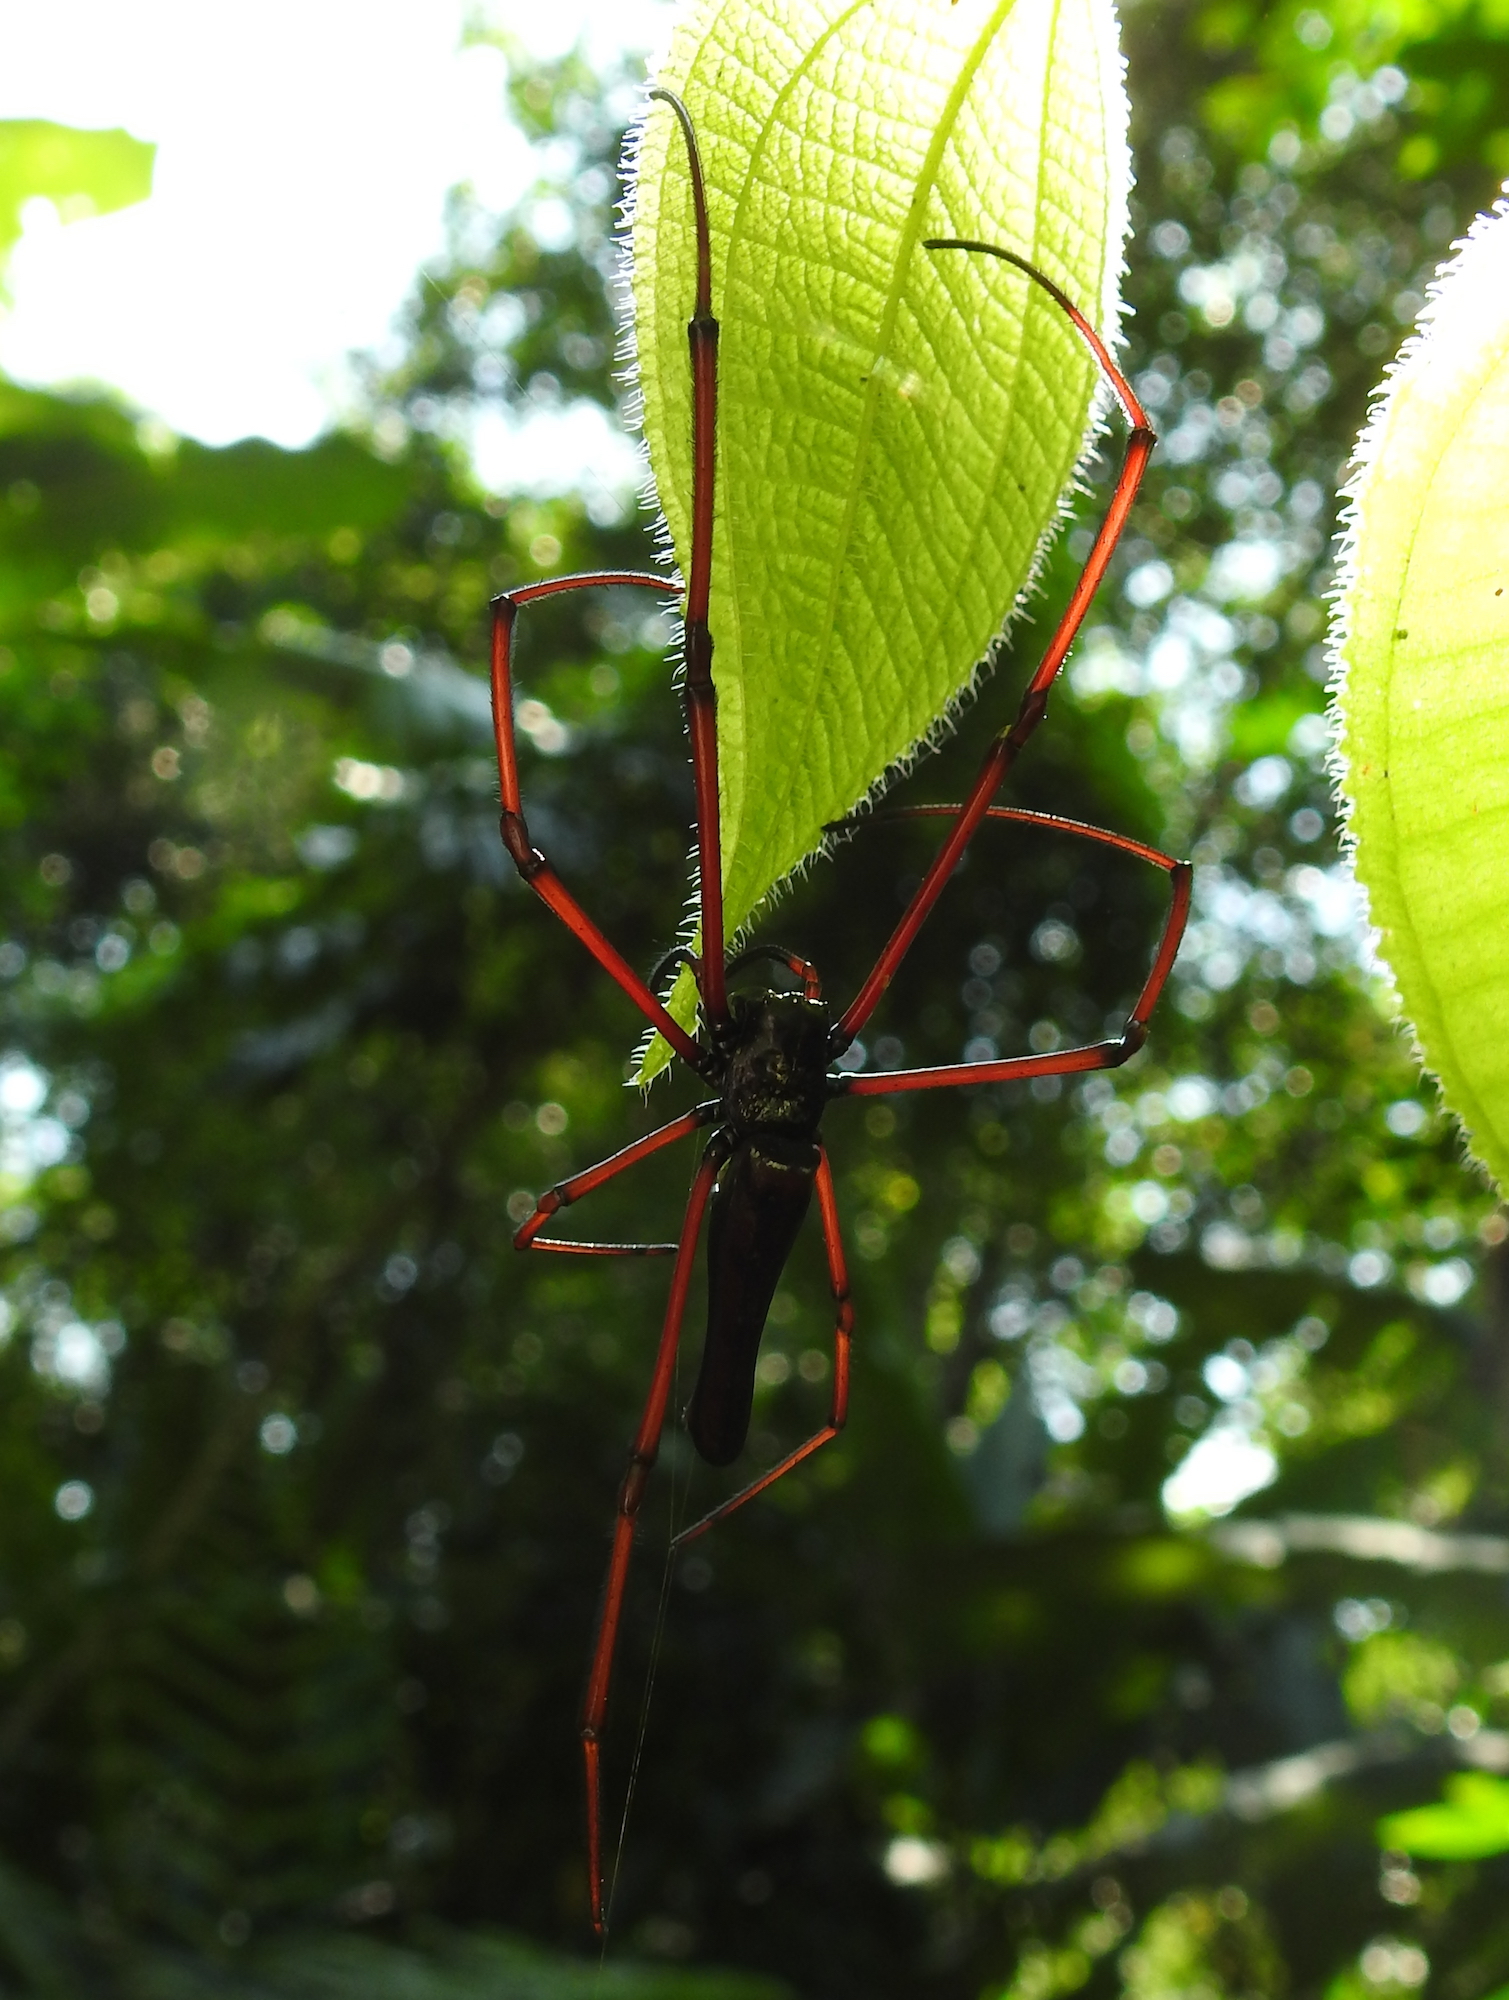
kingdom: Animalia
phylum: Arthropoda
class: Arachnida
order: Araneae
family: Araneidae
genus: Nephila
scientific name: Nephila kuhli
